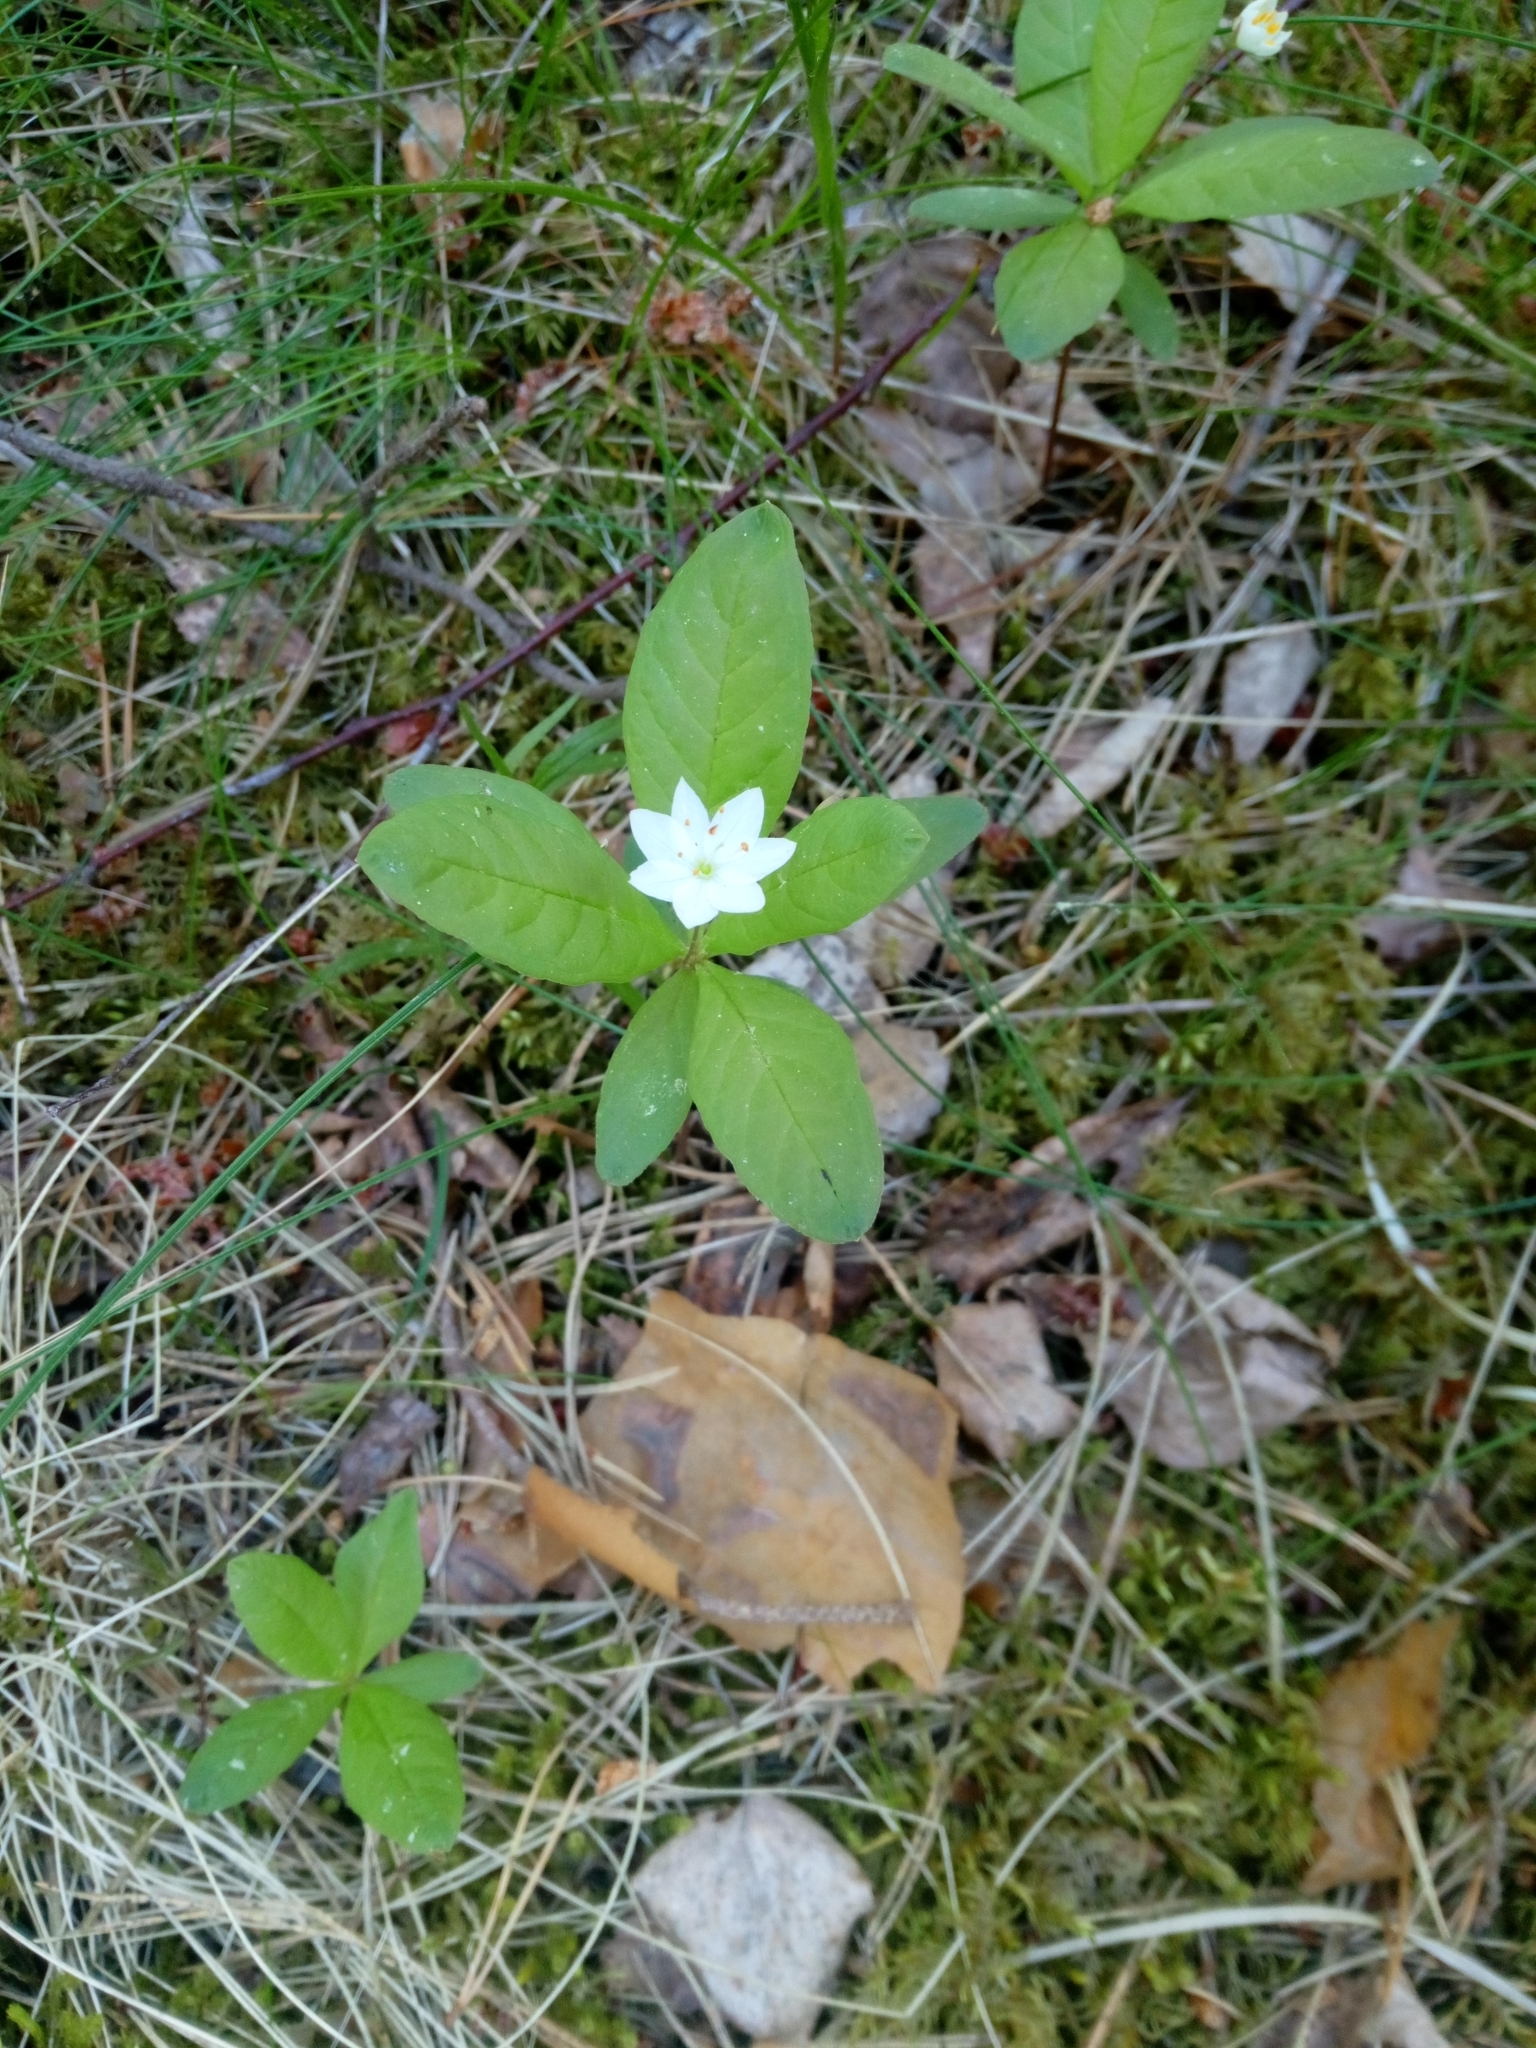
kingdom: Plantae
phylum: Tracheophyta
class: Magnoliopsida
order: Ericales
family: Primulaceae
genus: Lysimachia
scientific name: Lysimachia europaea
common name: Arctic starflower
